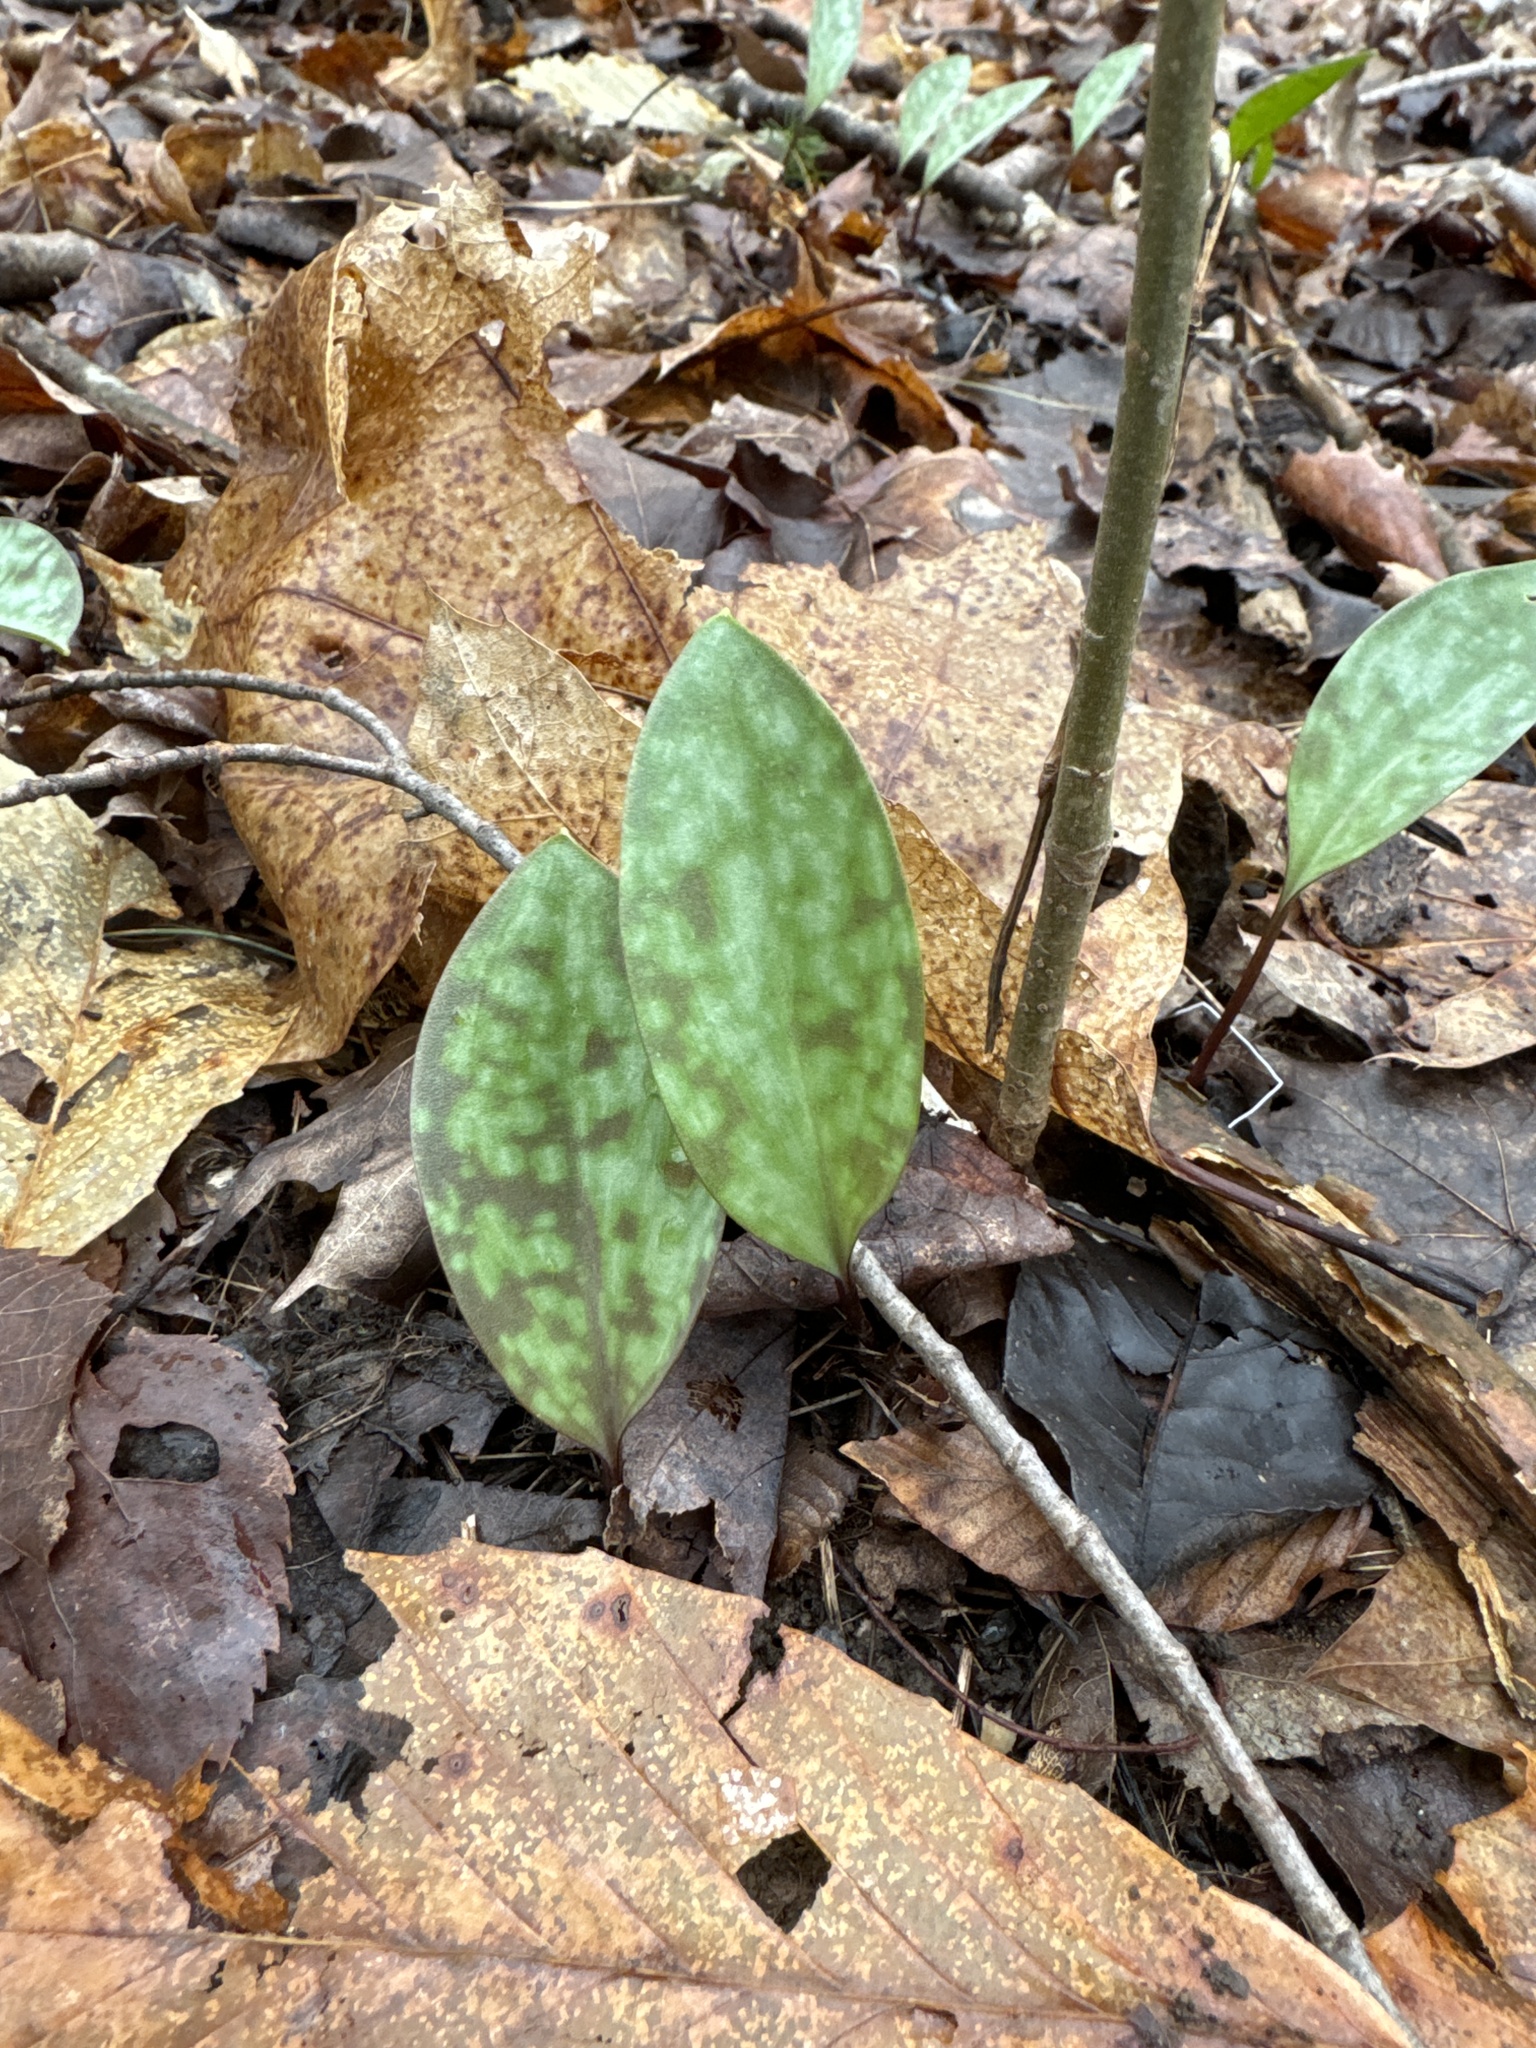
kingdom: Plantae
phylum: Tracheophyta
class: Liliopsida
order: Liliales
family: Liliaceae
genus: Erythronium
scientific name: Erythronium americanum
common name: Yellow adder's-tongue
